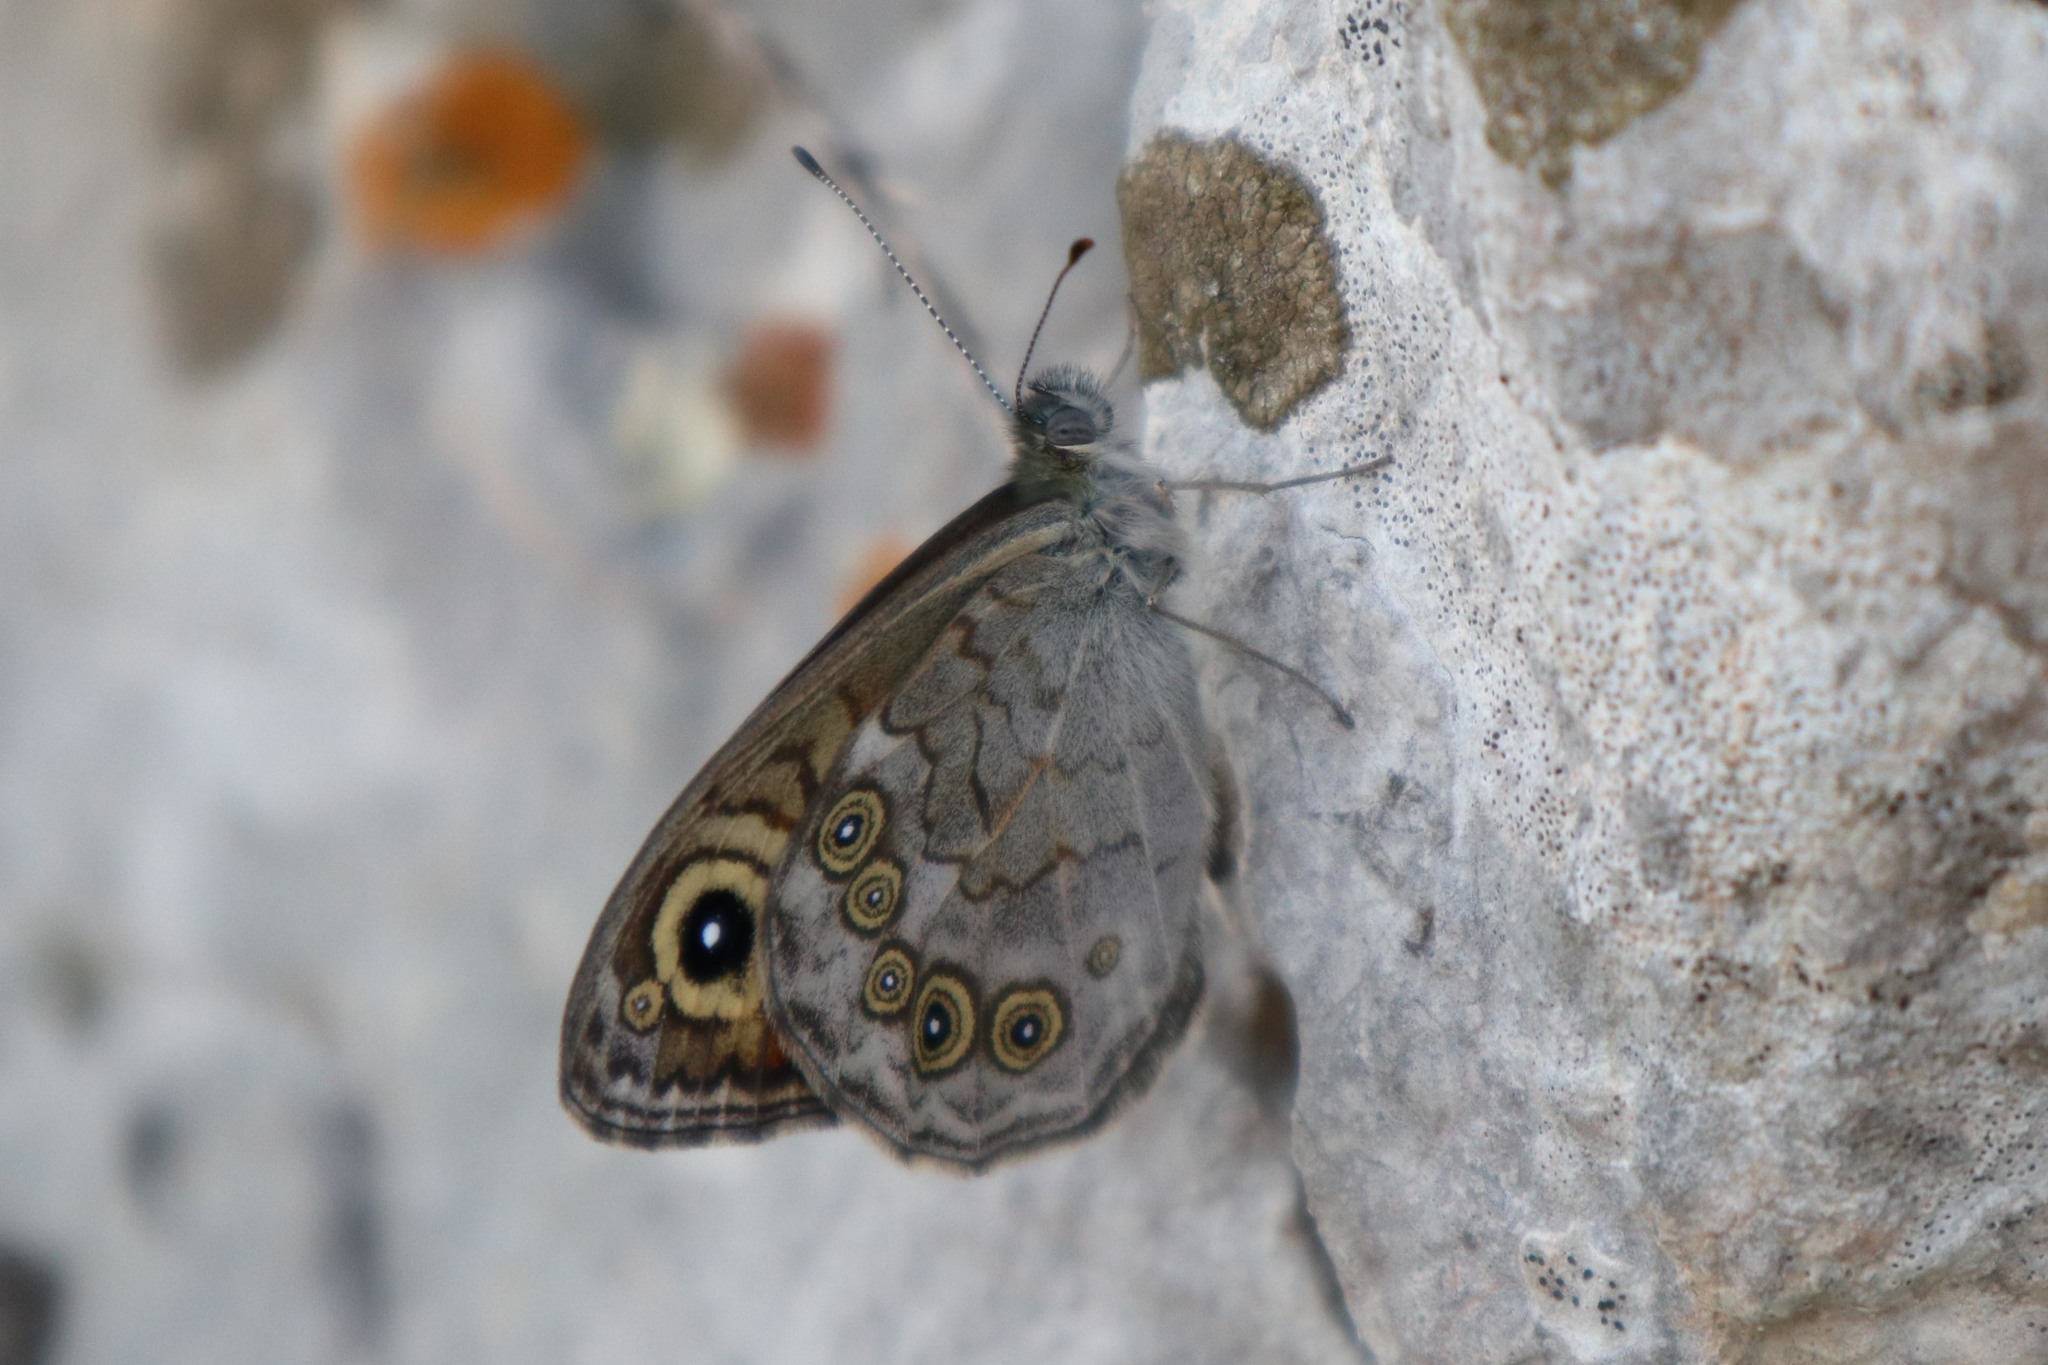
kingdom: Animalia
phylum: Arthropoda
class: Insecta
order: Lepidoptera
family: Nymphalidae
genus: Pararge
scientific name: Pararge Lasiommata maera
